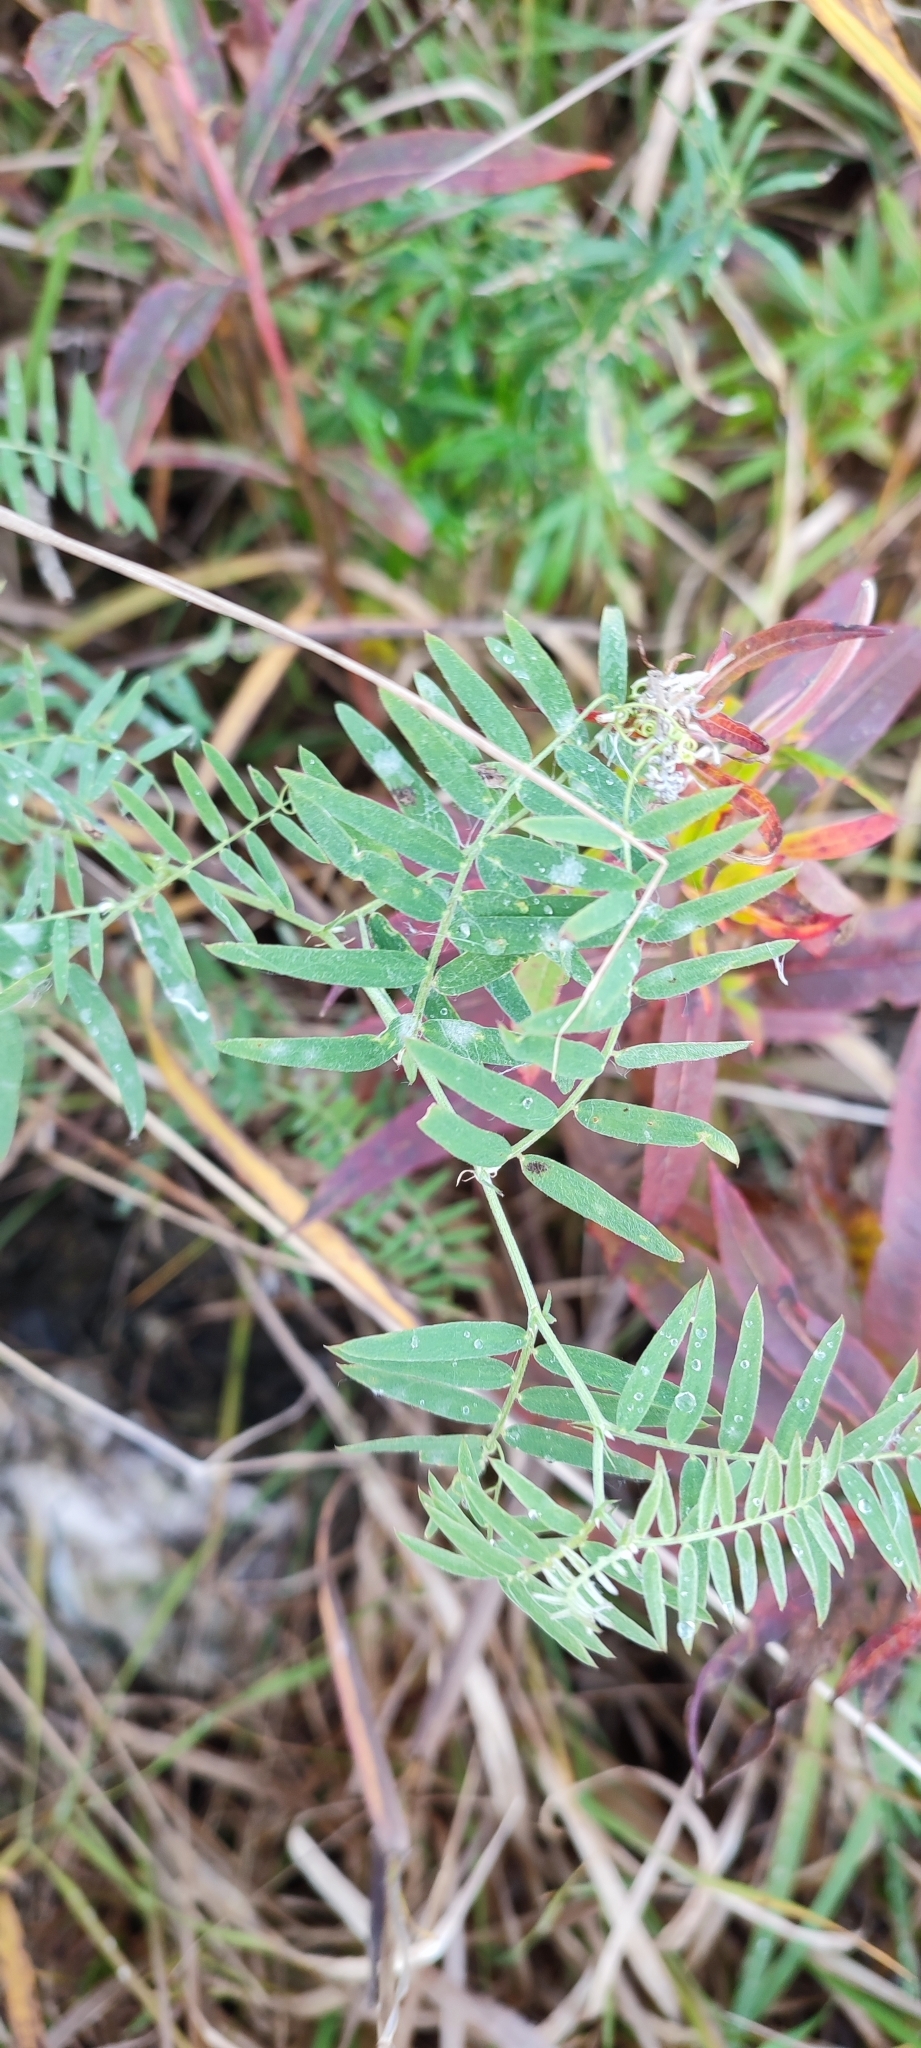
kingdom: Plantae
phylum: Tracheophyta
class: Magnoliopsida
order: Fabales
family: Fabaceae
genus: Vicia
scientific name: Vicia cracca
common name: Bird vetch
